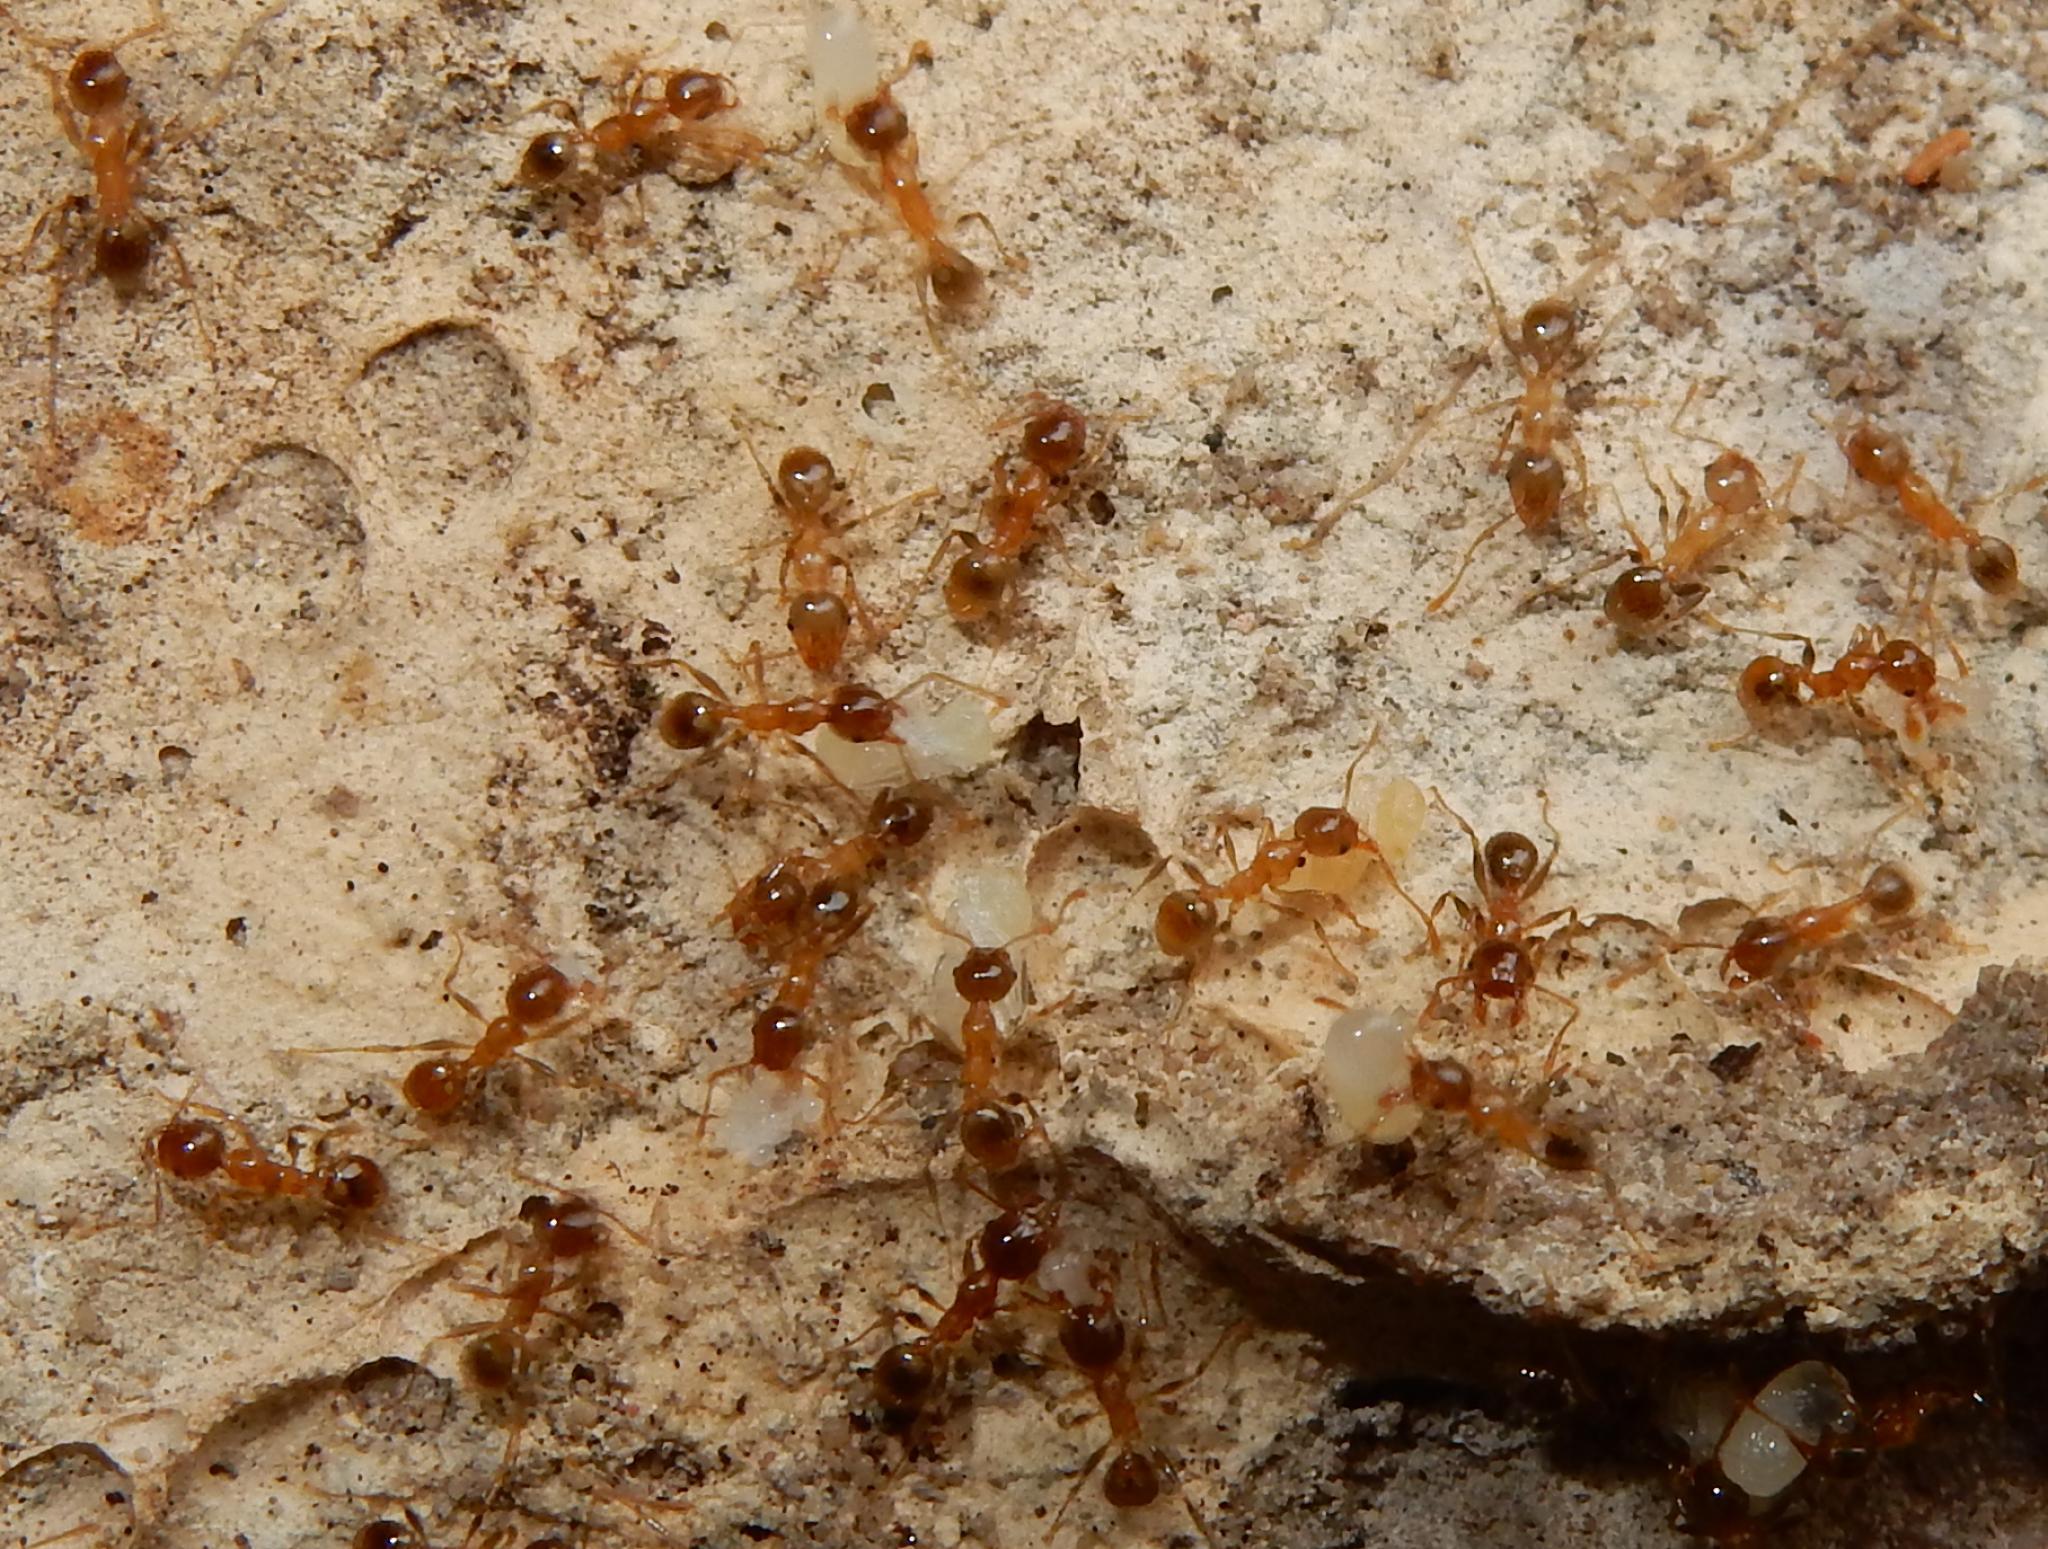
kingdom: Animalia
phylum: Arthropoda
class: Insecta
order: Hymenoptera
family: Formicidae
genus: Pheidole
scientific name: Pheidole megacephala
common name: Bigheaded ant
